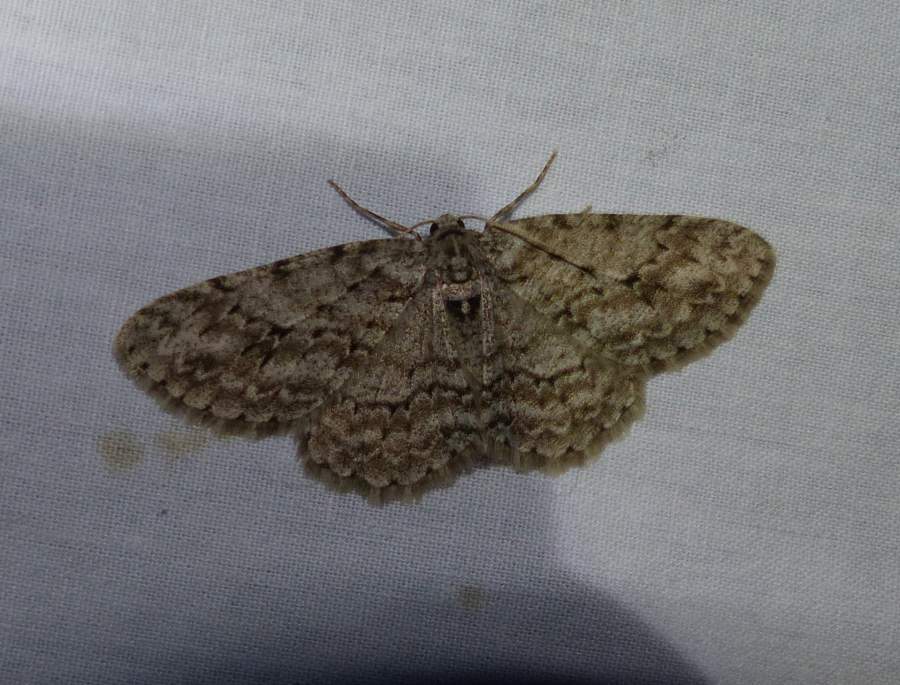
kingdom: Animalia
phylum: Arthropoda
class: Insecta
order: Lepidoptera
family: Geometridae
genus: Ectropis
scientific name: Ectropis crepuscularia
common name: Engrailed
